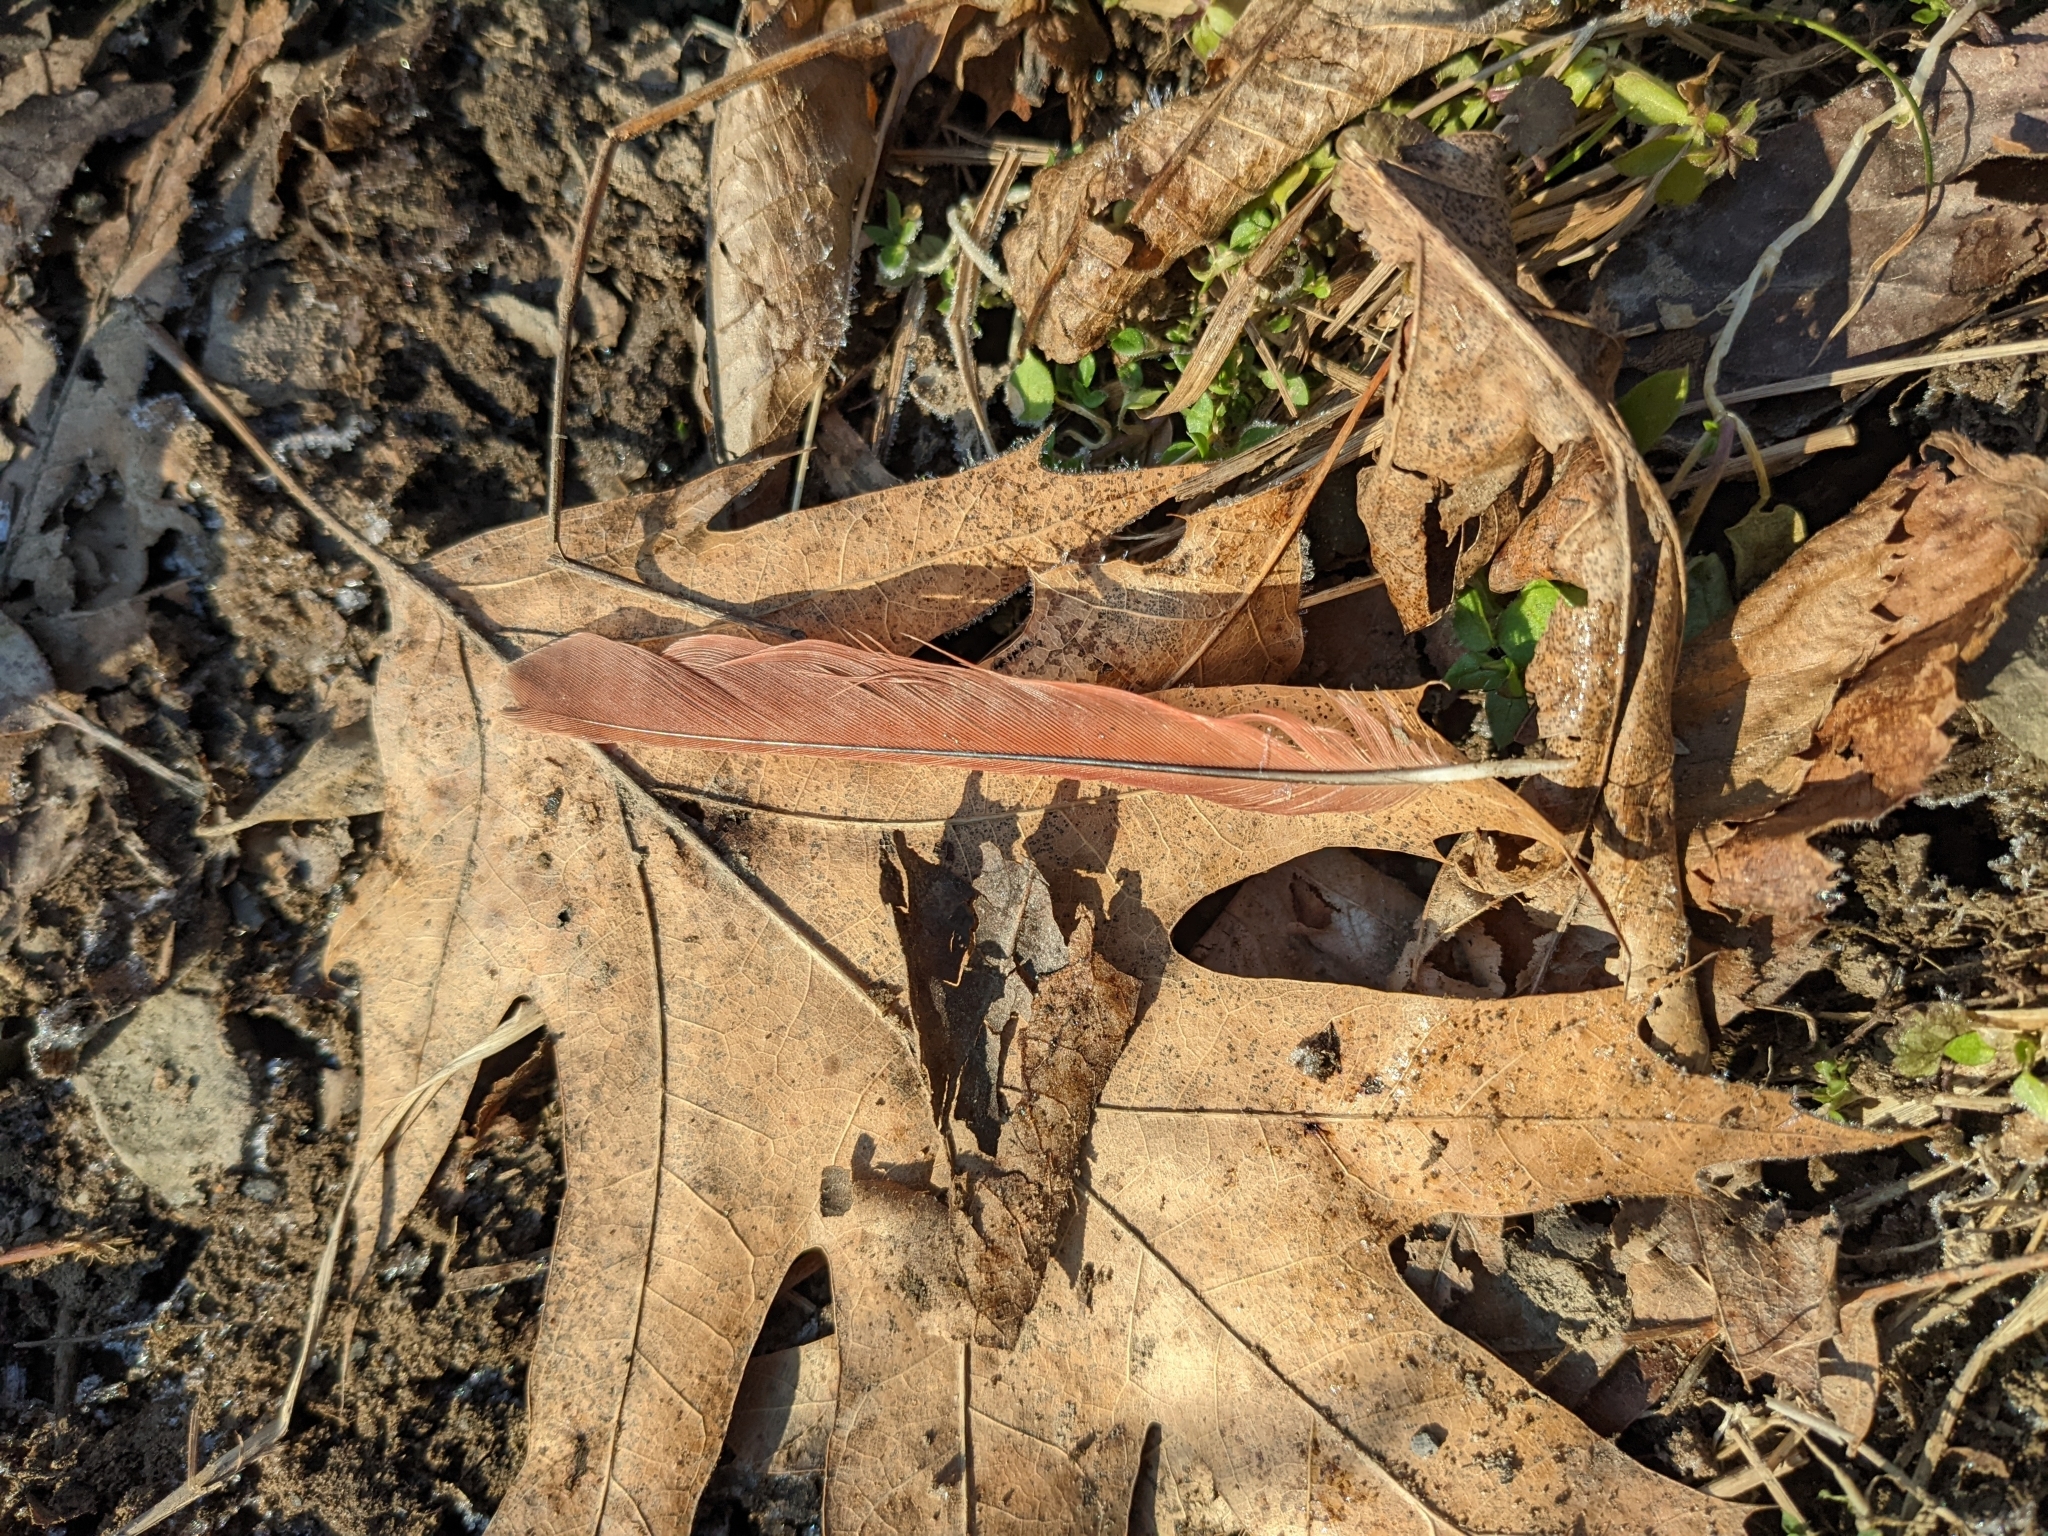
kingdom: Animalia
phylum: Chordata
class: Aves
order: Passeriformes
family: Cardinalidae
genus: Cardinalis
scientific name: Cardinalis cardinalis
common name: Northern cardinal
